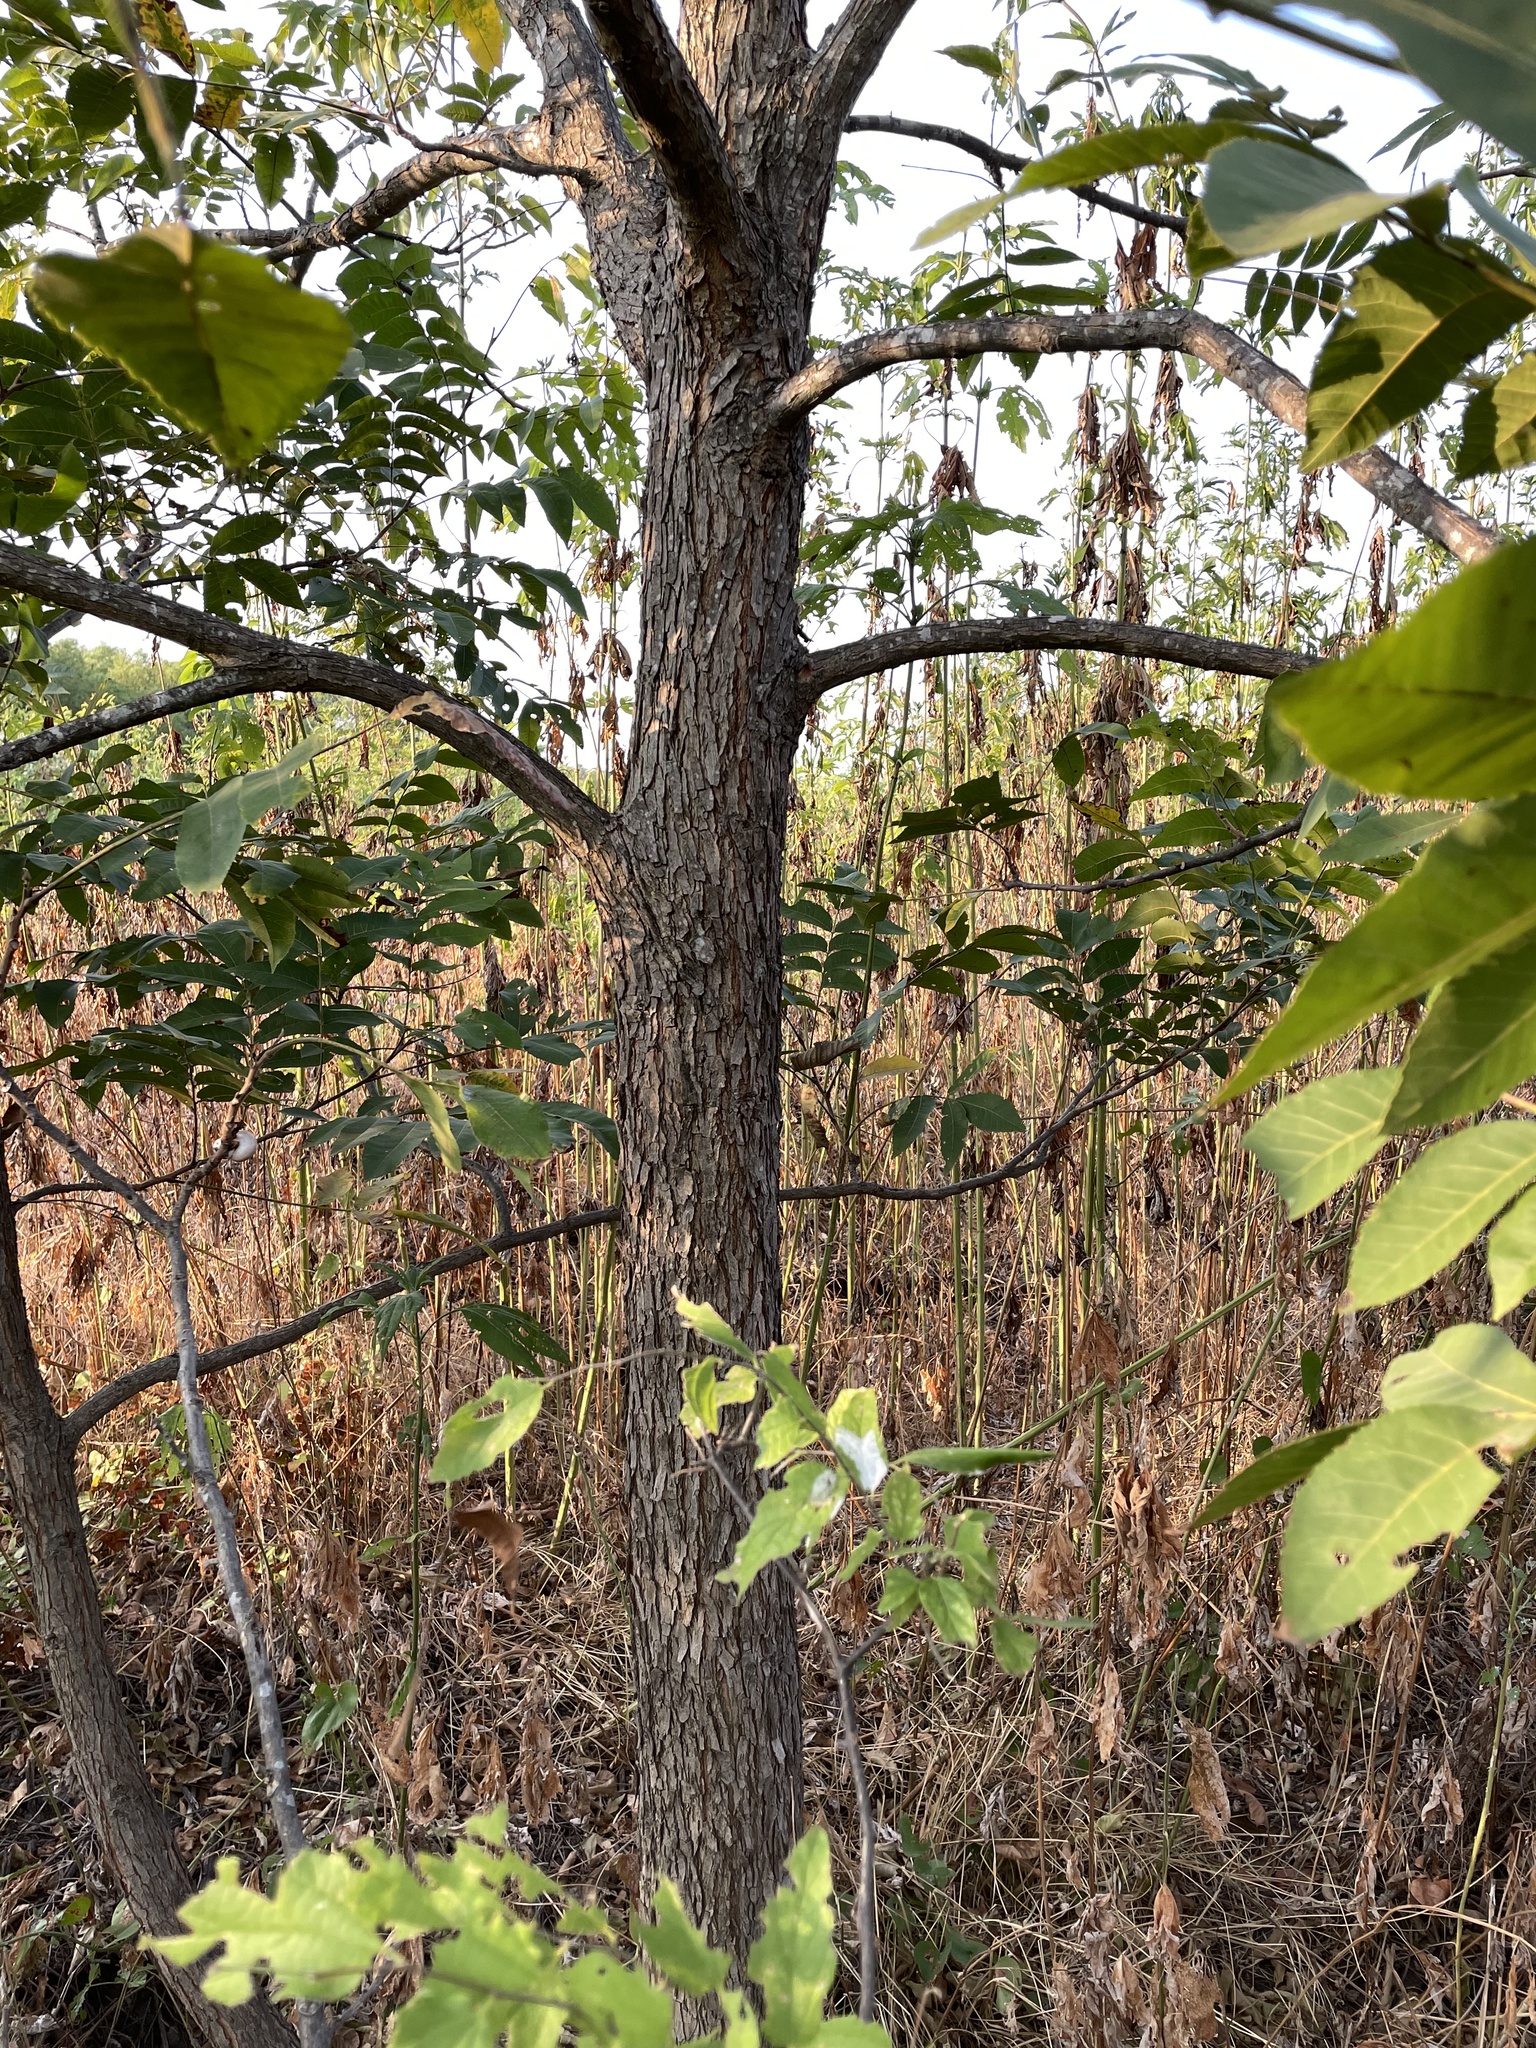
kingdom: Plantae
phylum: Tracheophyta
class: Magnoliopsida
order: Fagales
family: Juglandaceae
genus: Carya
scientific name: Carya illinoinensis
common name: Pecan
